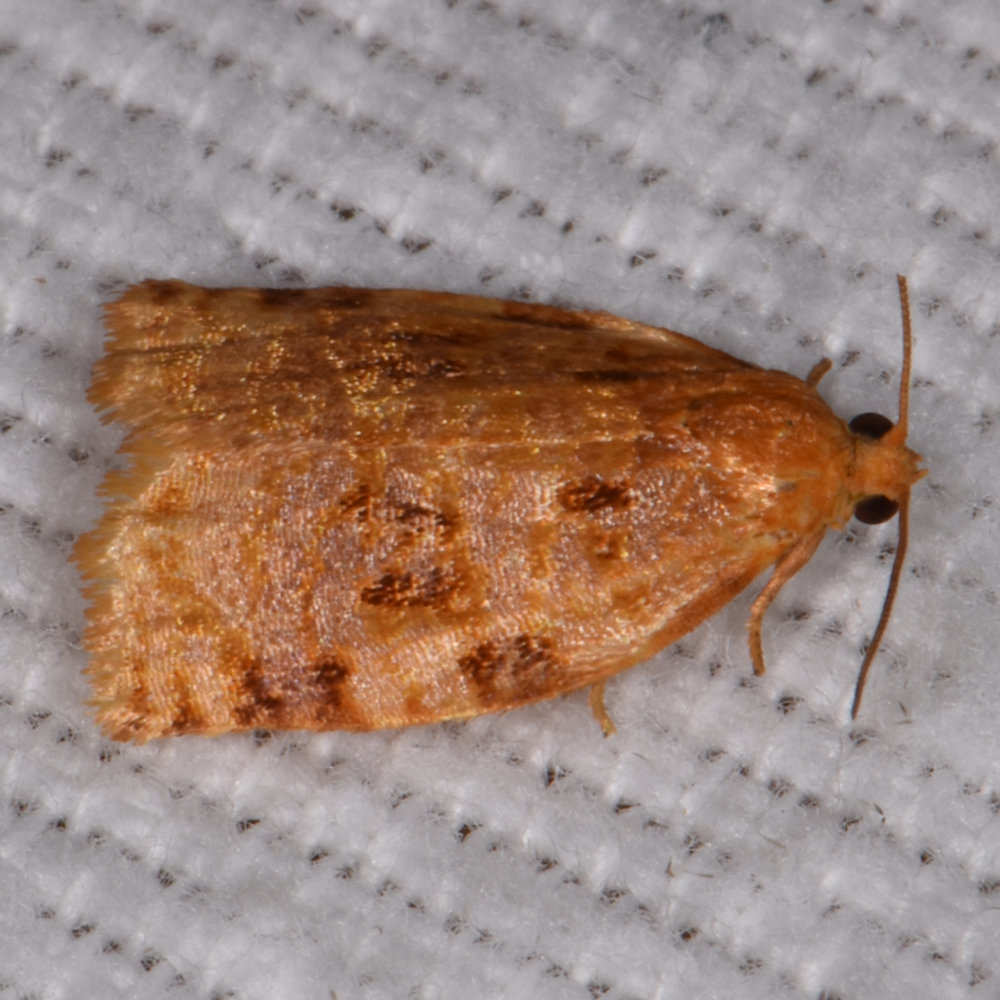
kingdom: Animalia
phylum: Arthropoda
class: Insecta
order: Lepidoptera
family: Tortricidae
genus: Archips
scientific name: Archips cerasivorana
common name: Uglynest caterpillar
